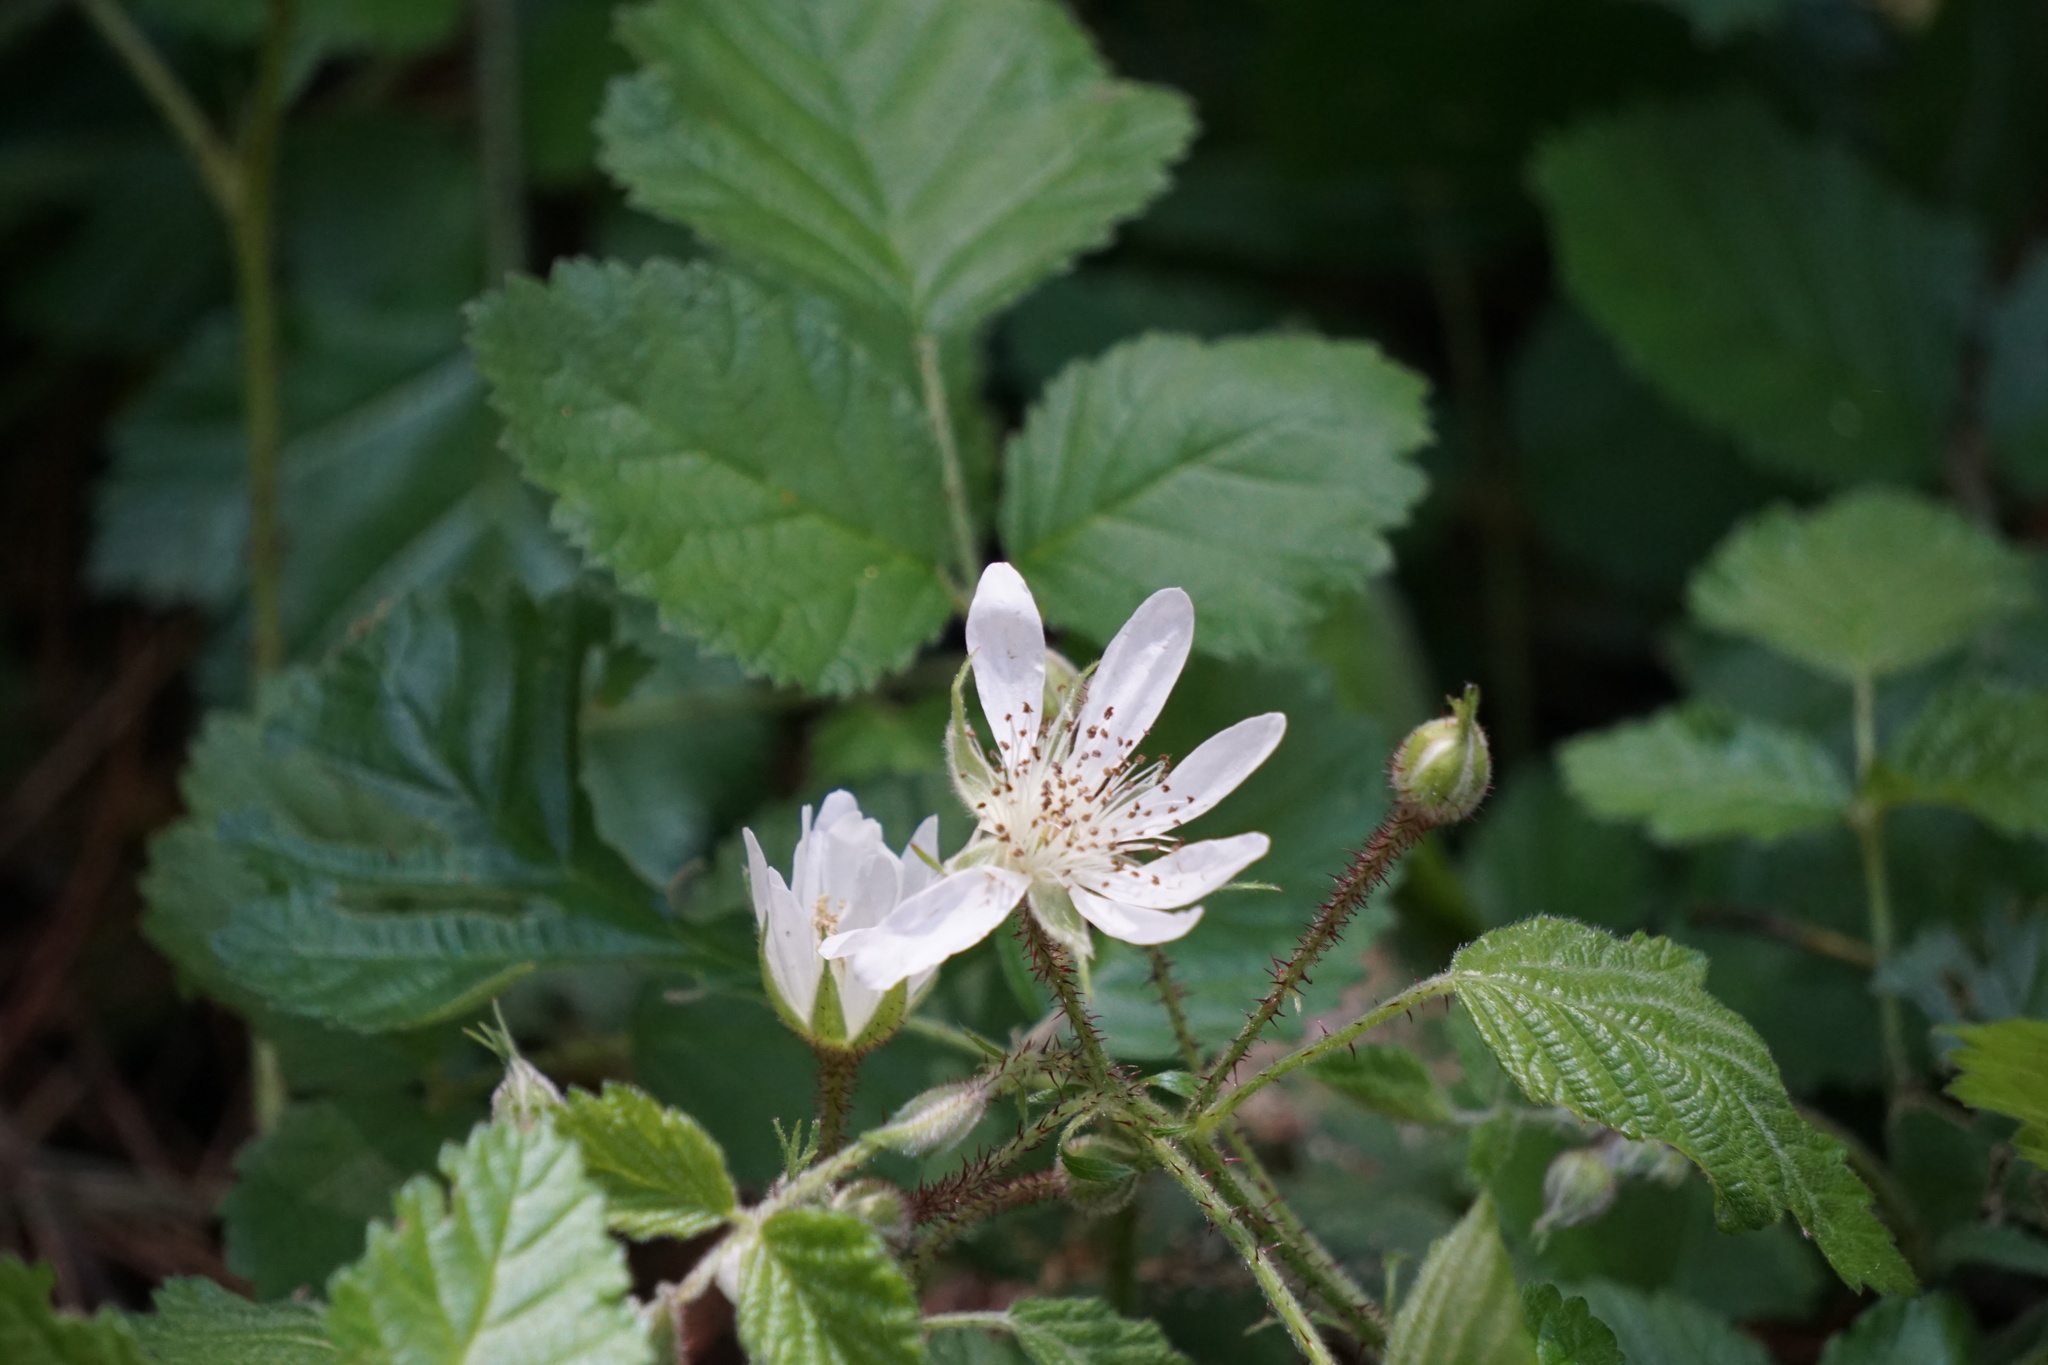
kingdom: Plantae
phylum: Tracheophyta
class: Magnoliopsida
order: Rosales
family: Rosaceae
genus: Rubus
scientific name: Rubus ursinus
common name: Pacific blackberry
